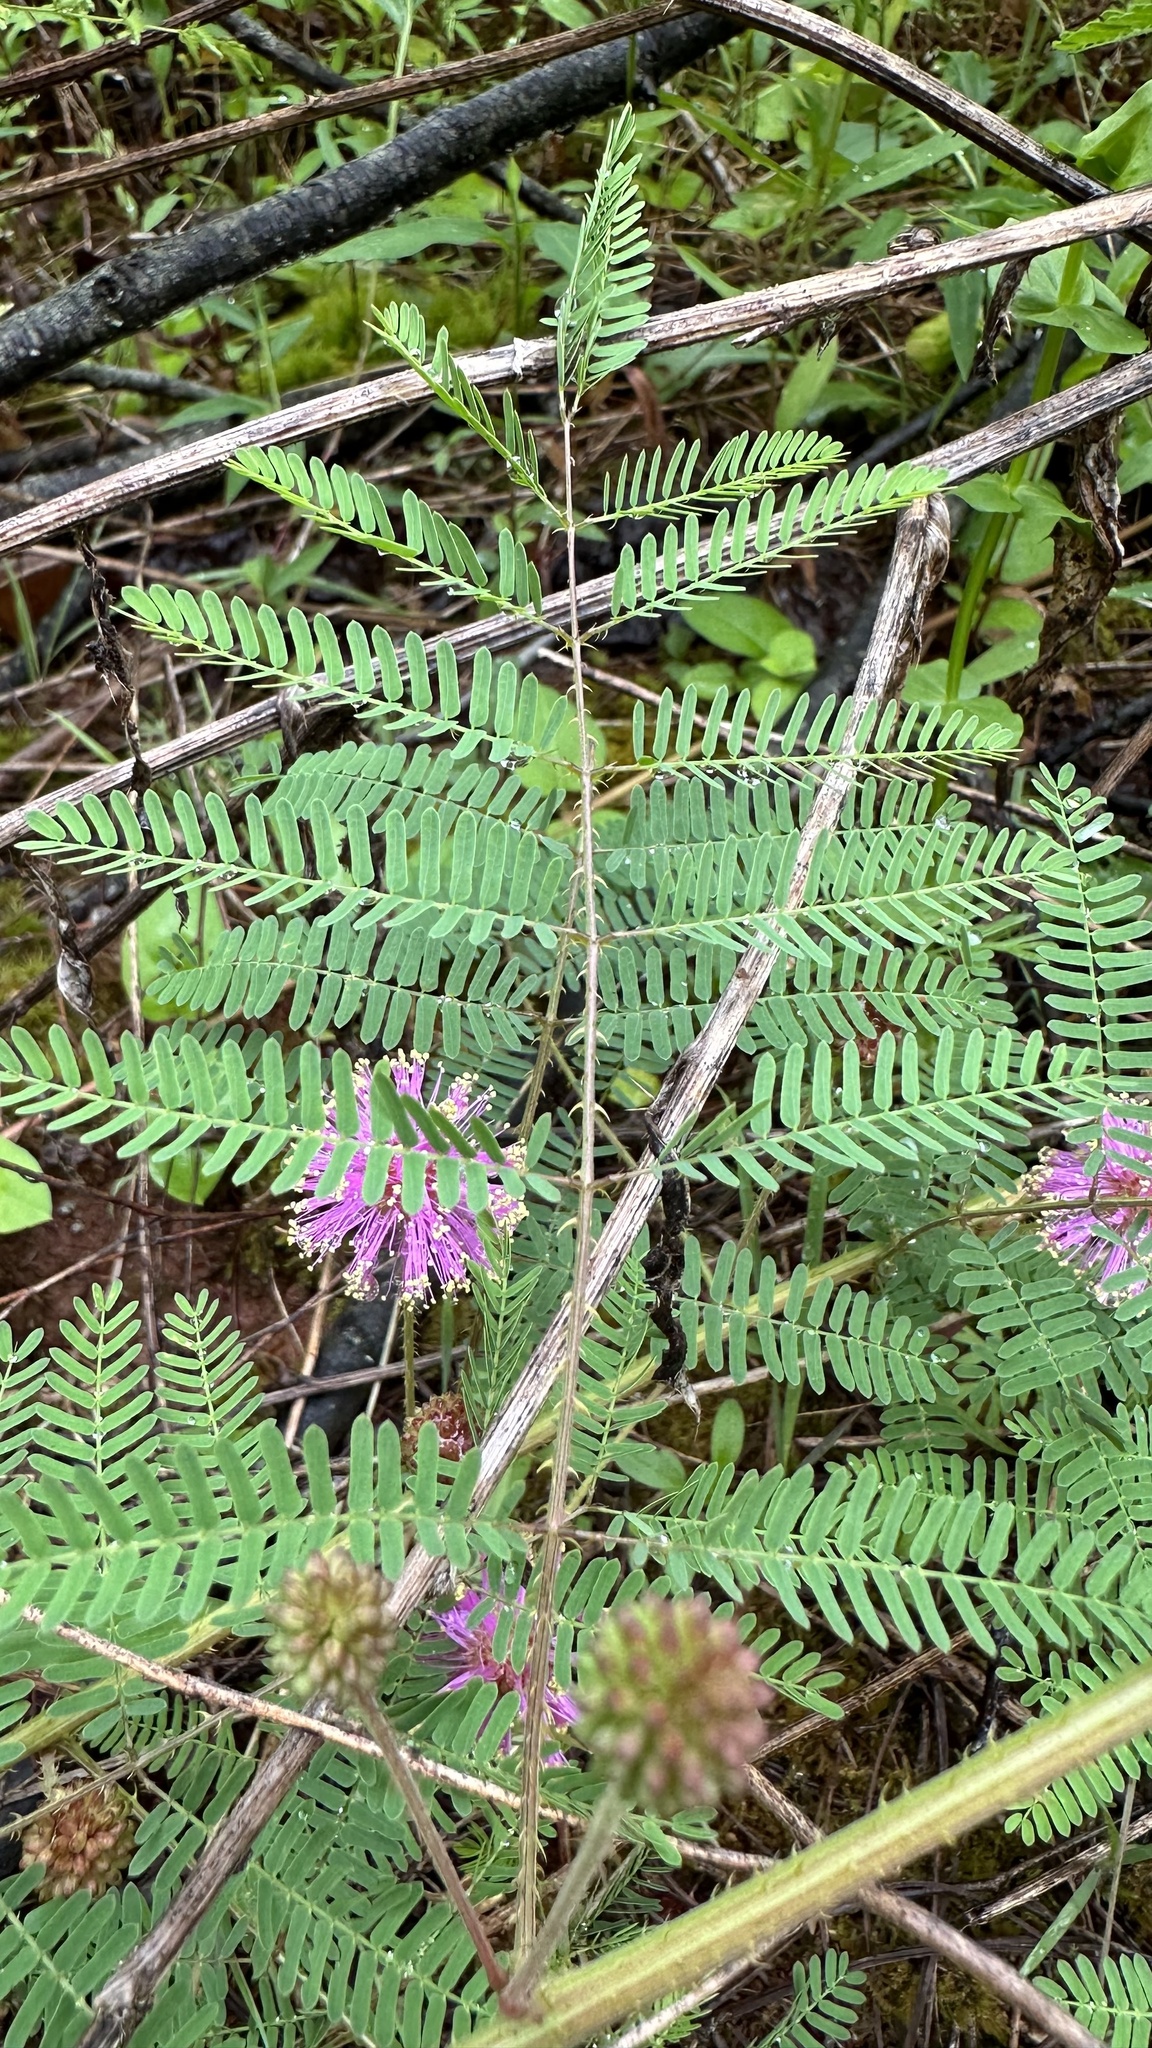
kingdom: Plantae
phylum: Tracheophyta
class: Magnoliopsida
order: Fabales
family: Fabaceae
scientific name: Fabaceae
